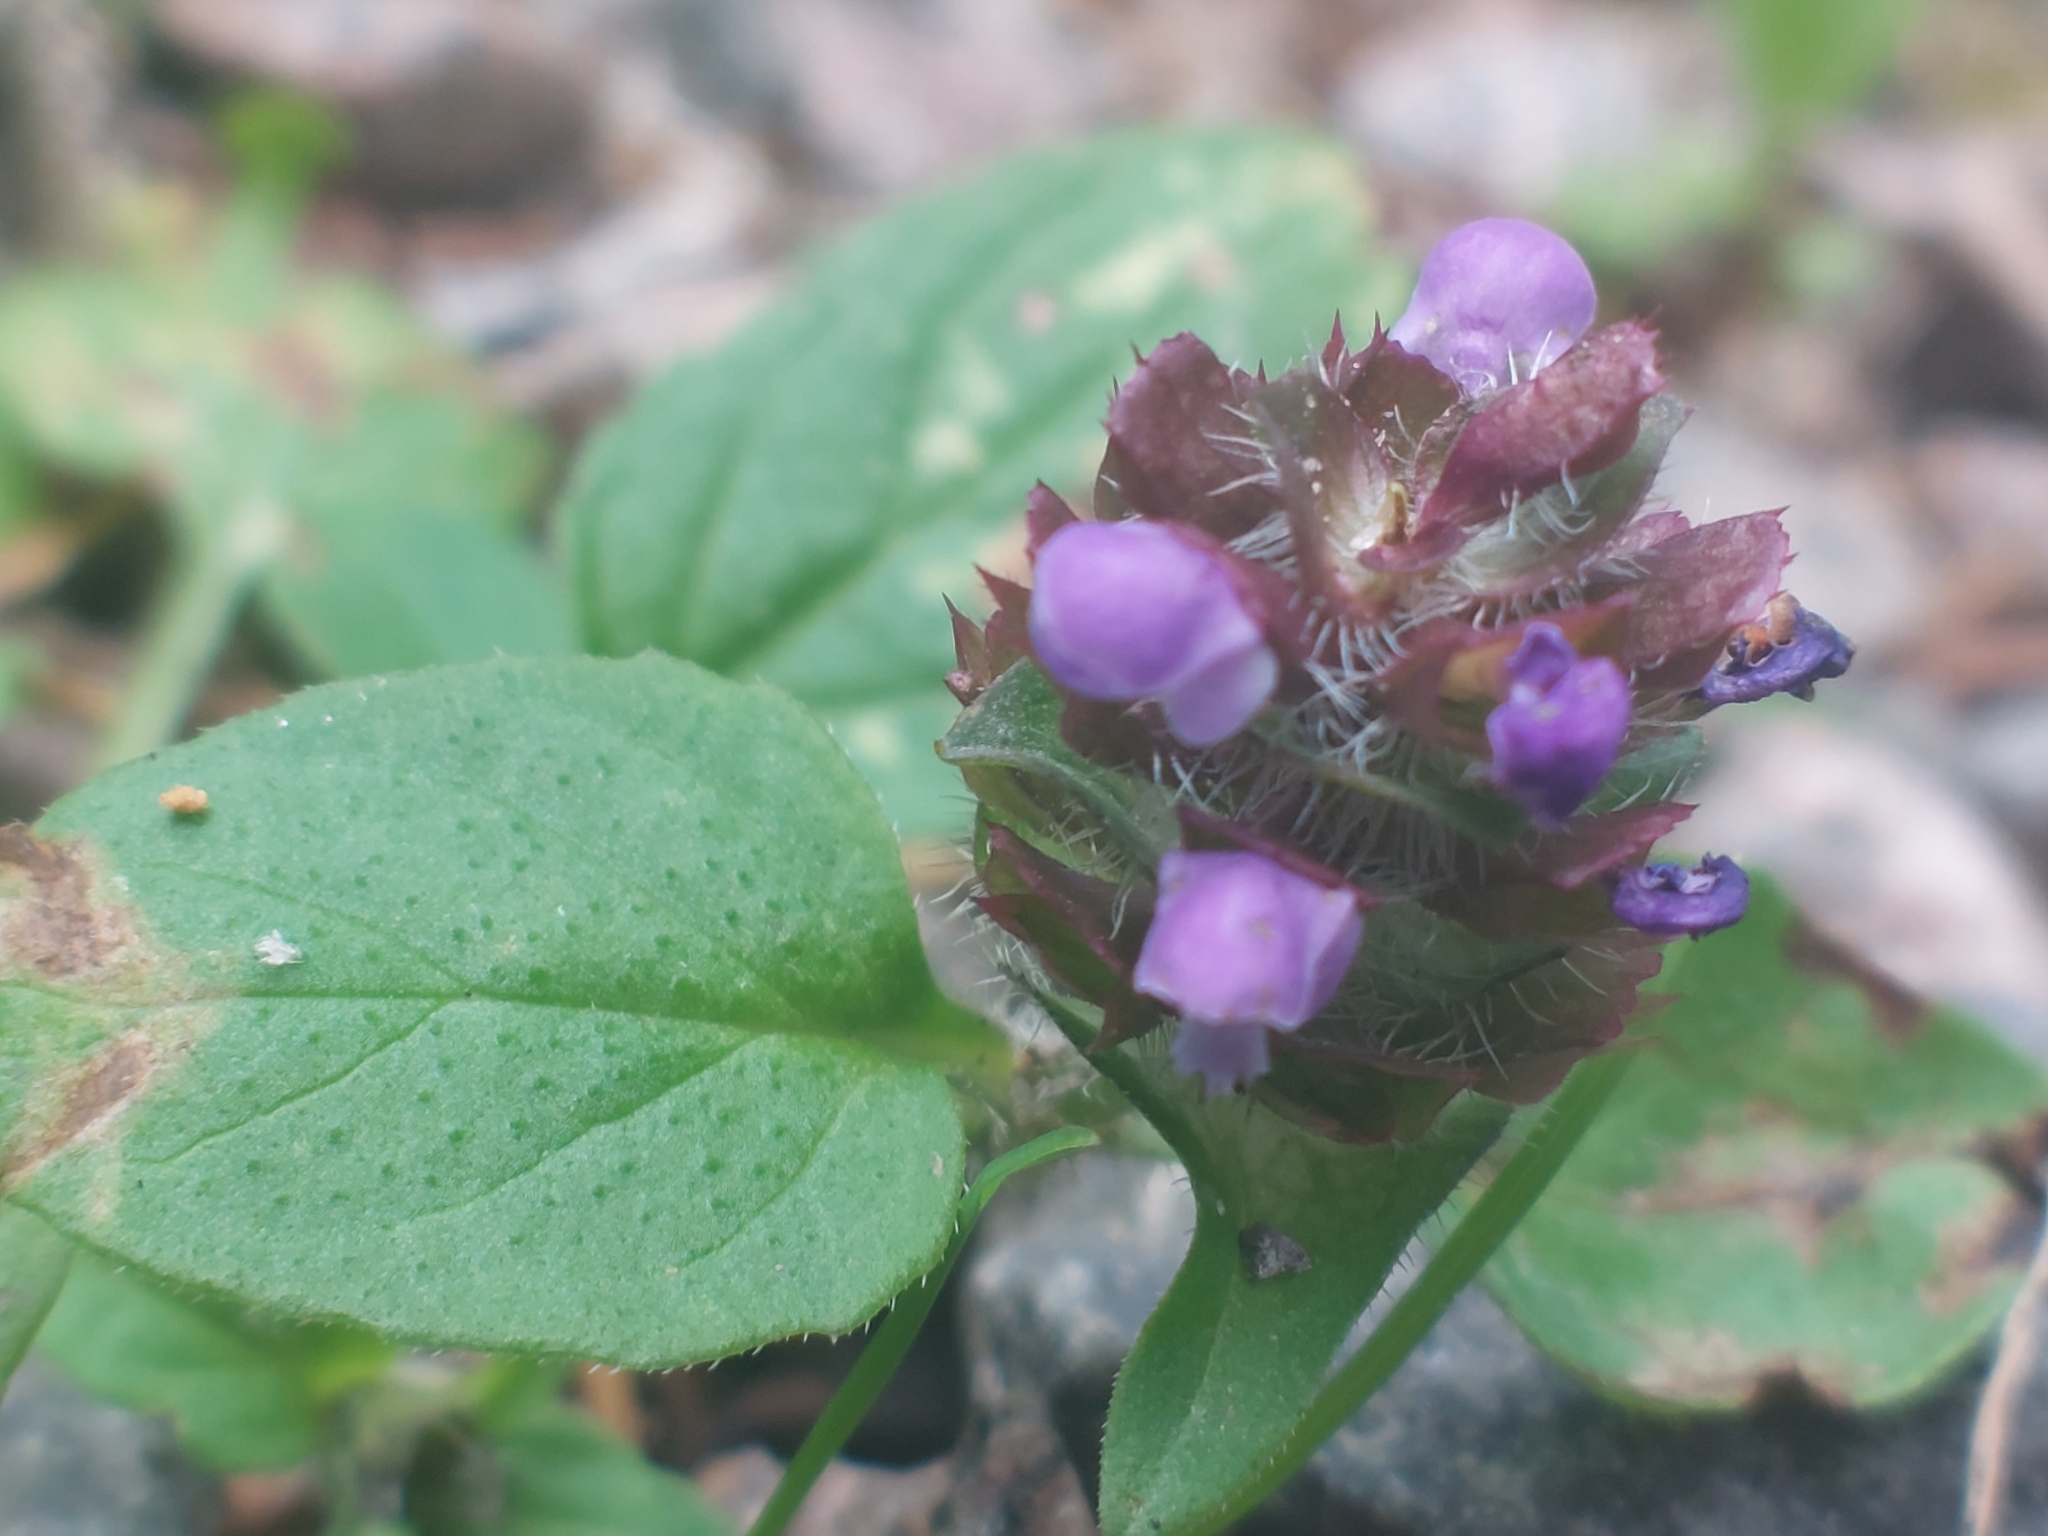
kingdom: Plantae
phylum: Tracheophyta
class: Magnoliopsida
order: Lamiales
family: Lamiaceae
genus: Prunella
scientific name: Prunella vulgaris
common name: Heal-all
